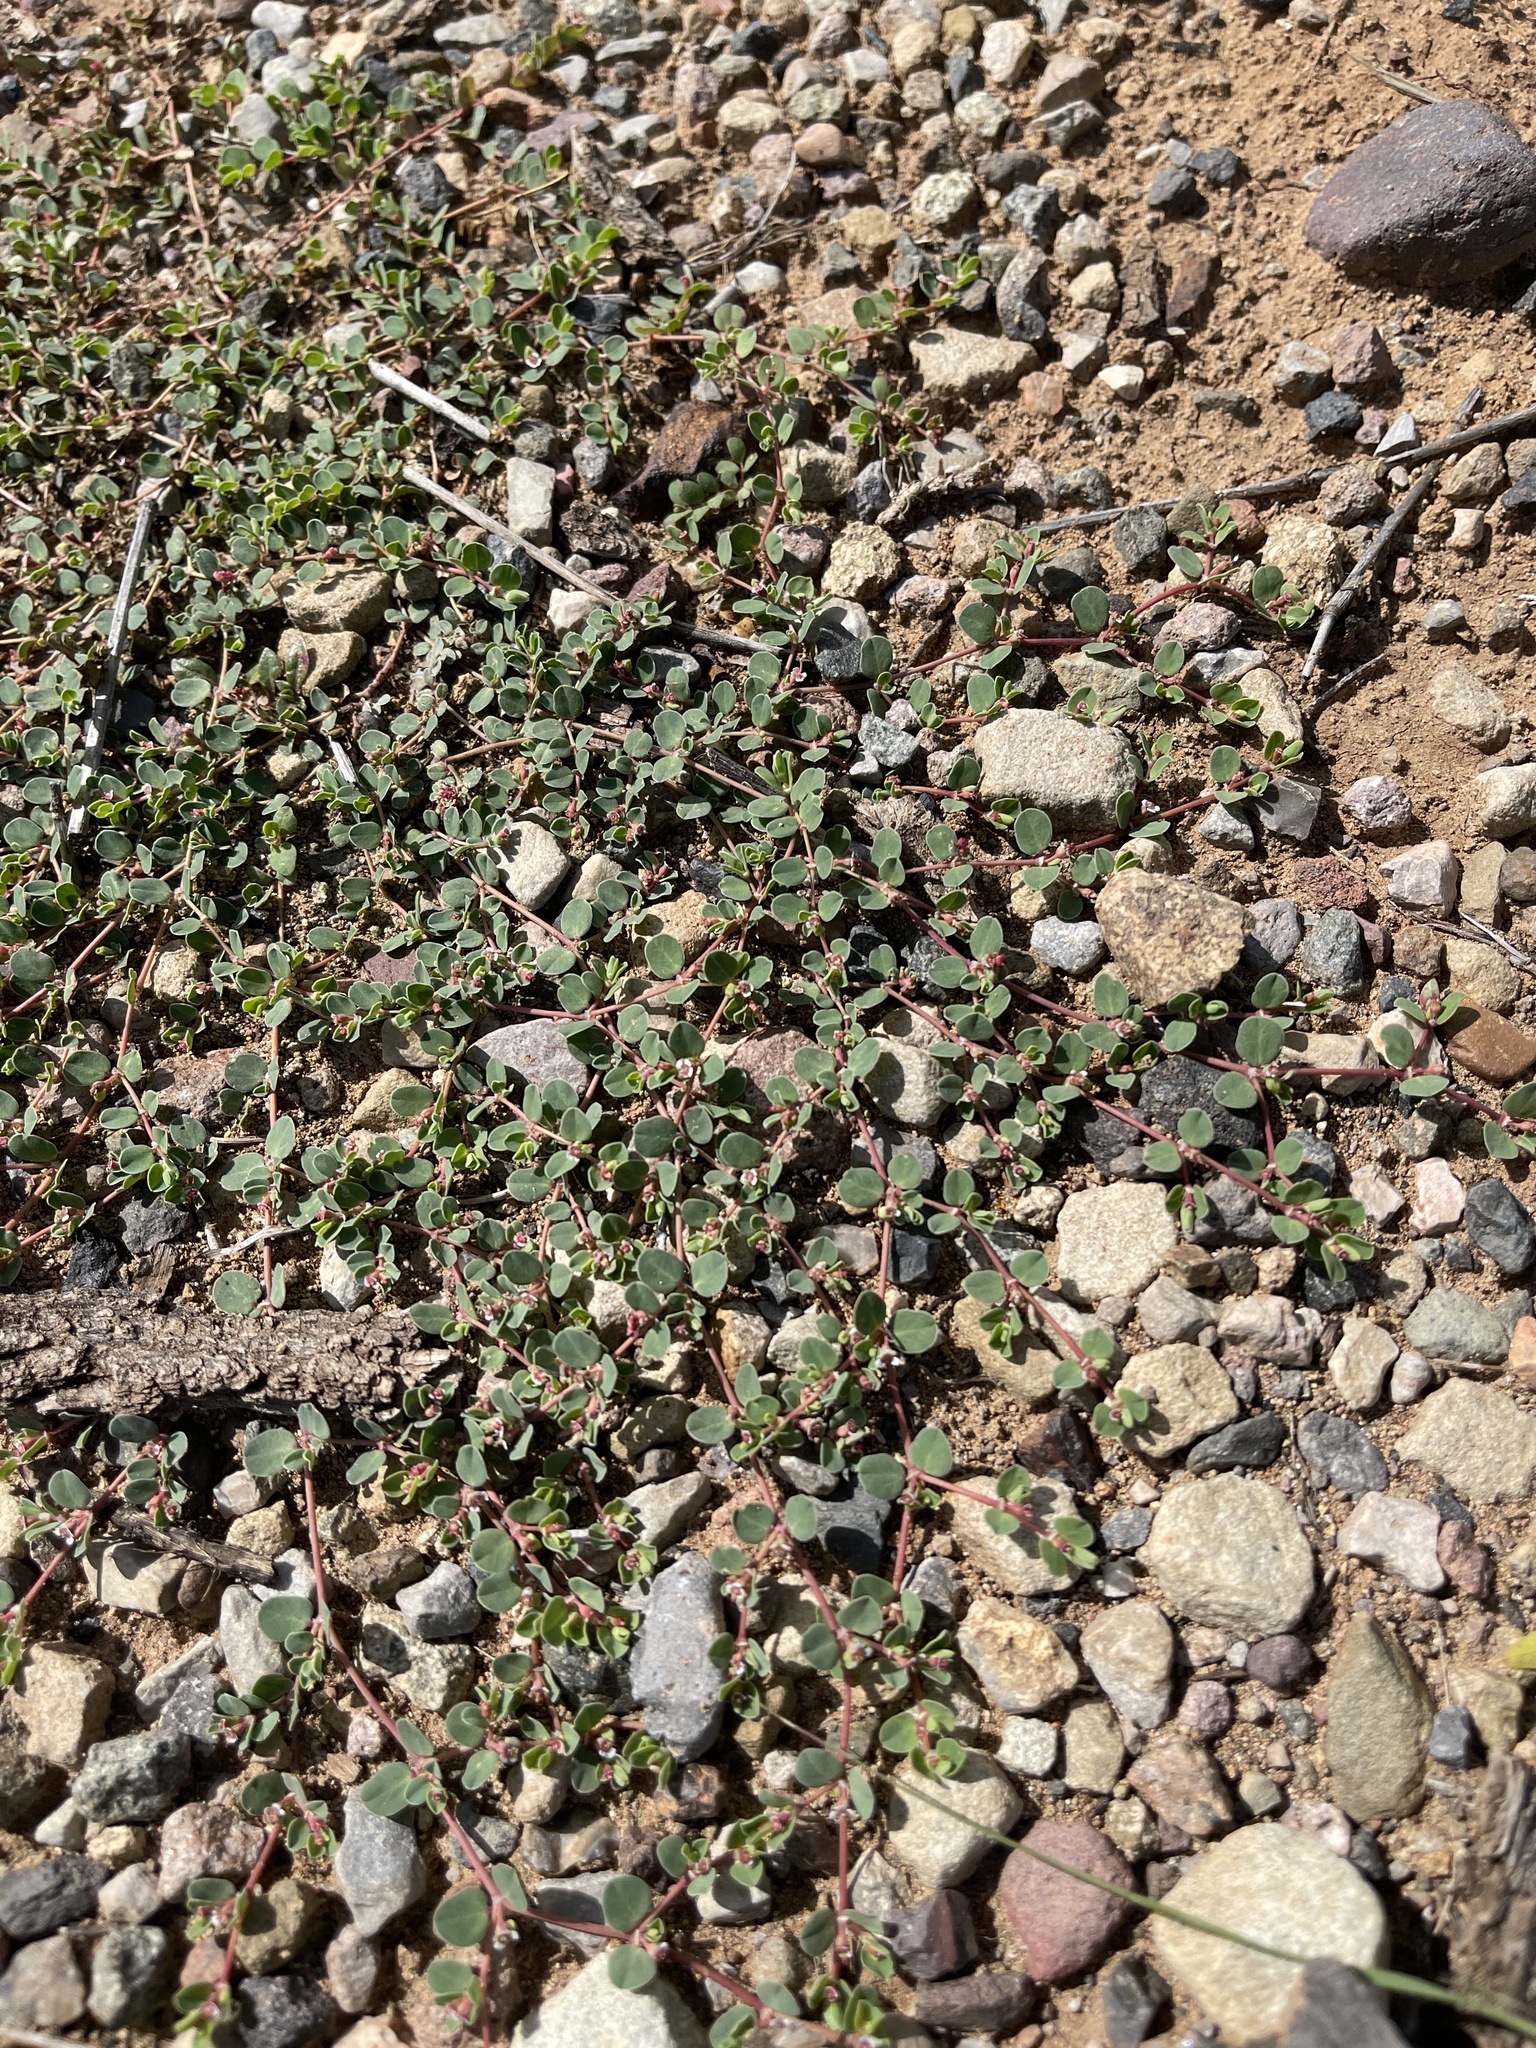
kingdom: Plantae
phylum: Tracheophyta
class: Magnoliopsida
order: Malpighiales
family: Euphorbiaceae
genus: Euphorbia
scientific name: Euphorbia albomarginata
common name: Whitemargin sandmat
